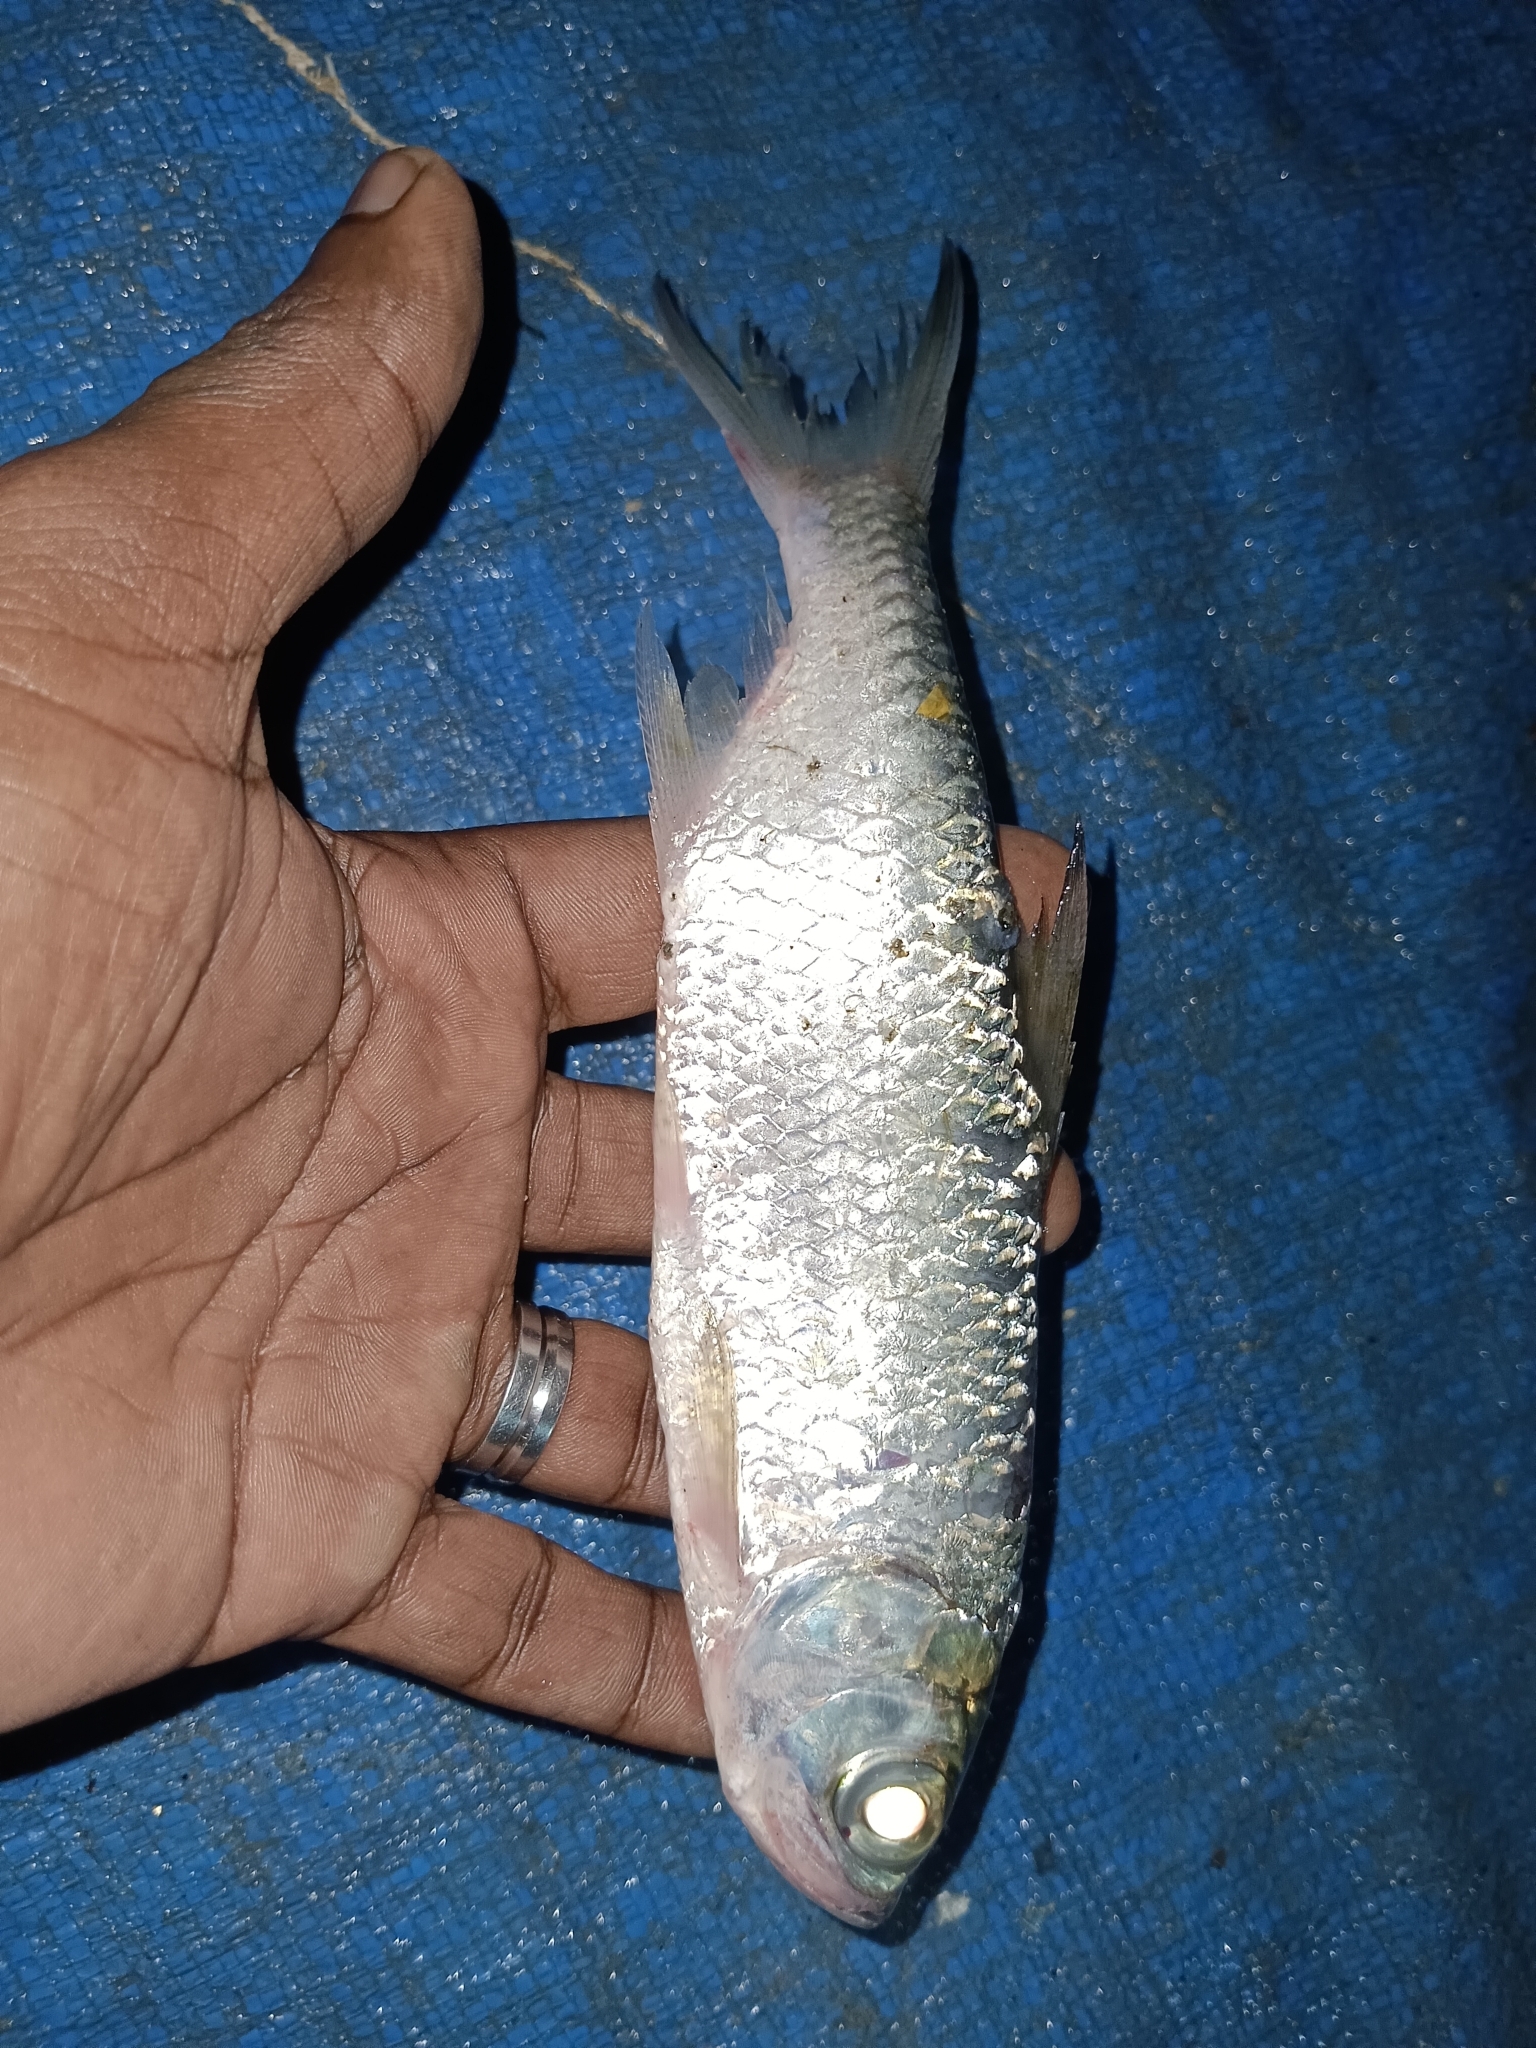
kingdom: Animalia
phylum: Chordata
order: Elopiformes
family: Megalopidae
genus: Megalops
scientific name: Megalops cyprinoides
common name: Indo-pacific tarpon
